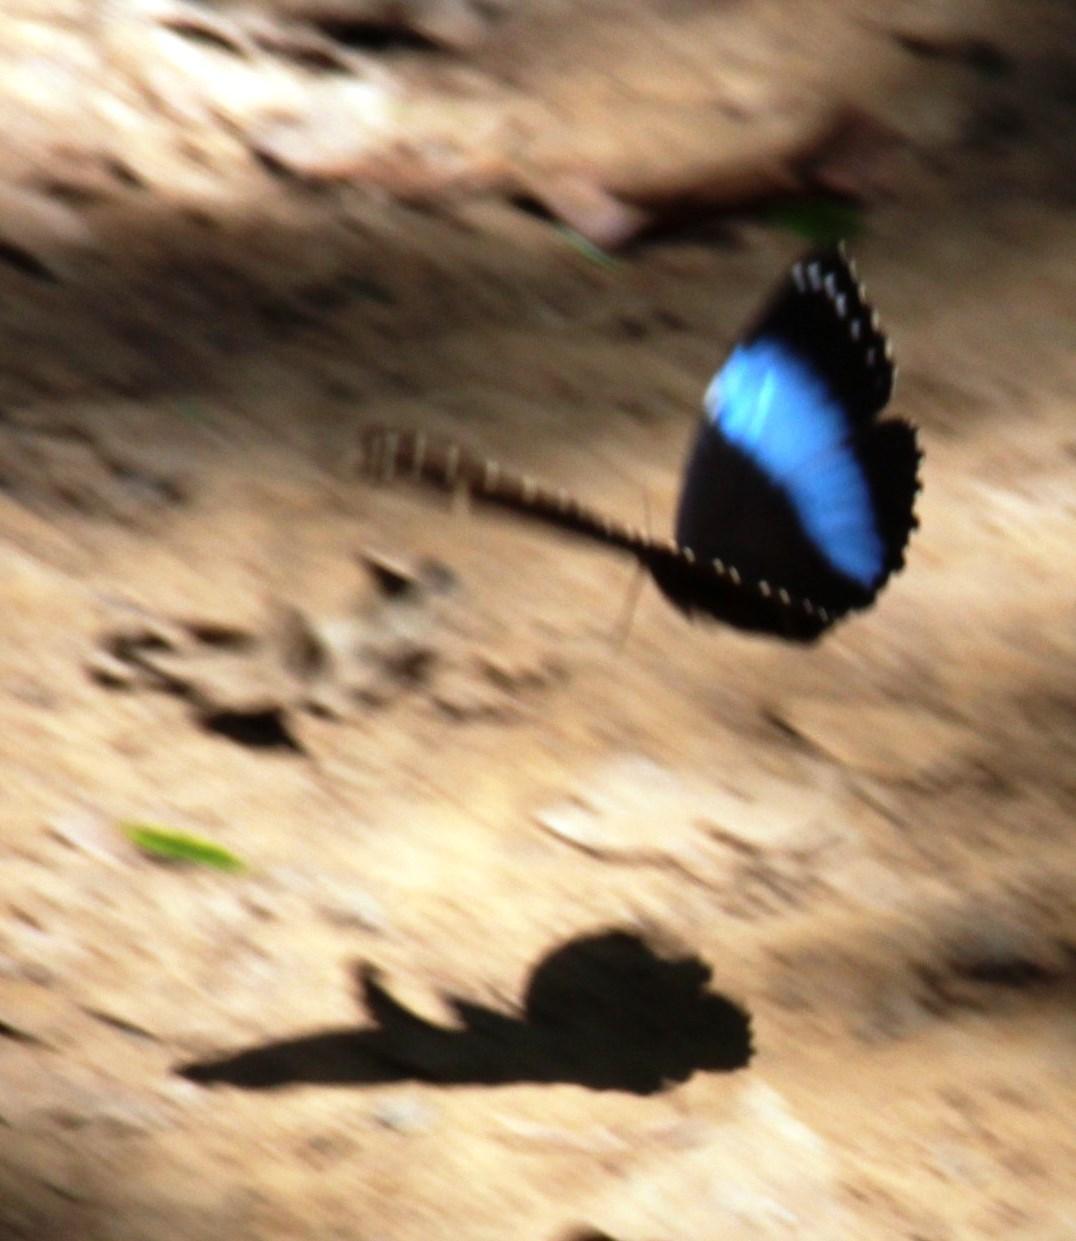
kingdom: Animalia
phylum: Arthropoda
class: Insecta
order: Lepidoptera
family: Nymphalidae
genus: Morpho
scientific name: Morpho helenor
